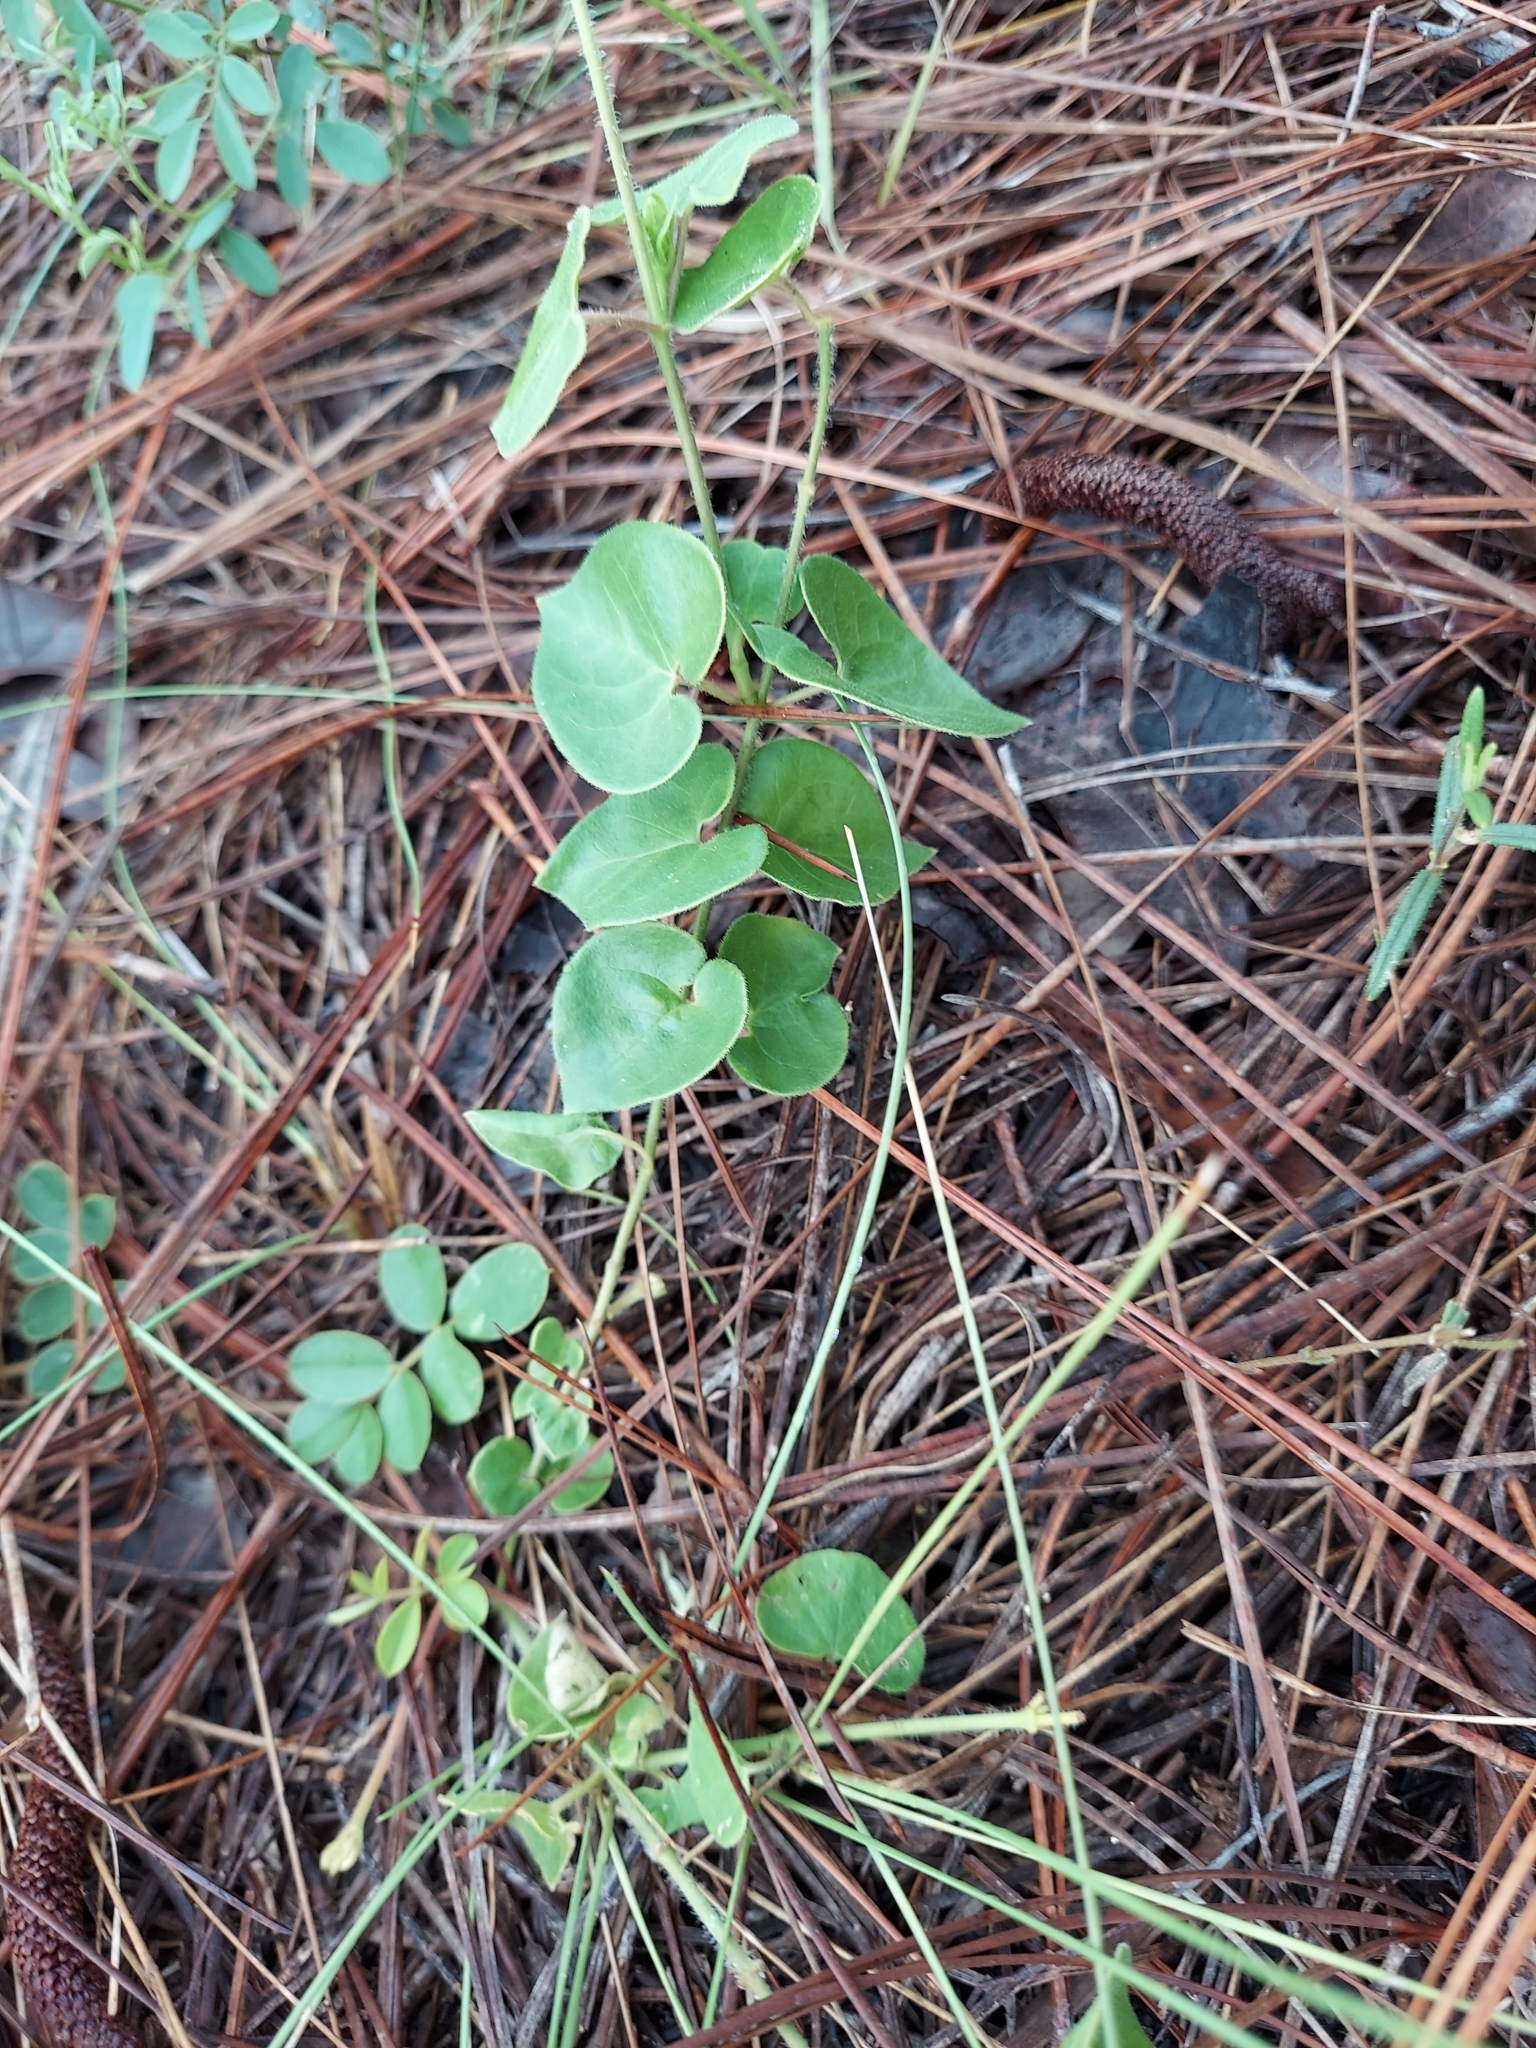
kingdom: Plantae
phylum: Tracheophyta
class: Magnoliopsida
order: Gentianales
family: Apocynaceae
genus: Chthamalia
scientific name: Chthamalia pubiflora
